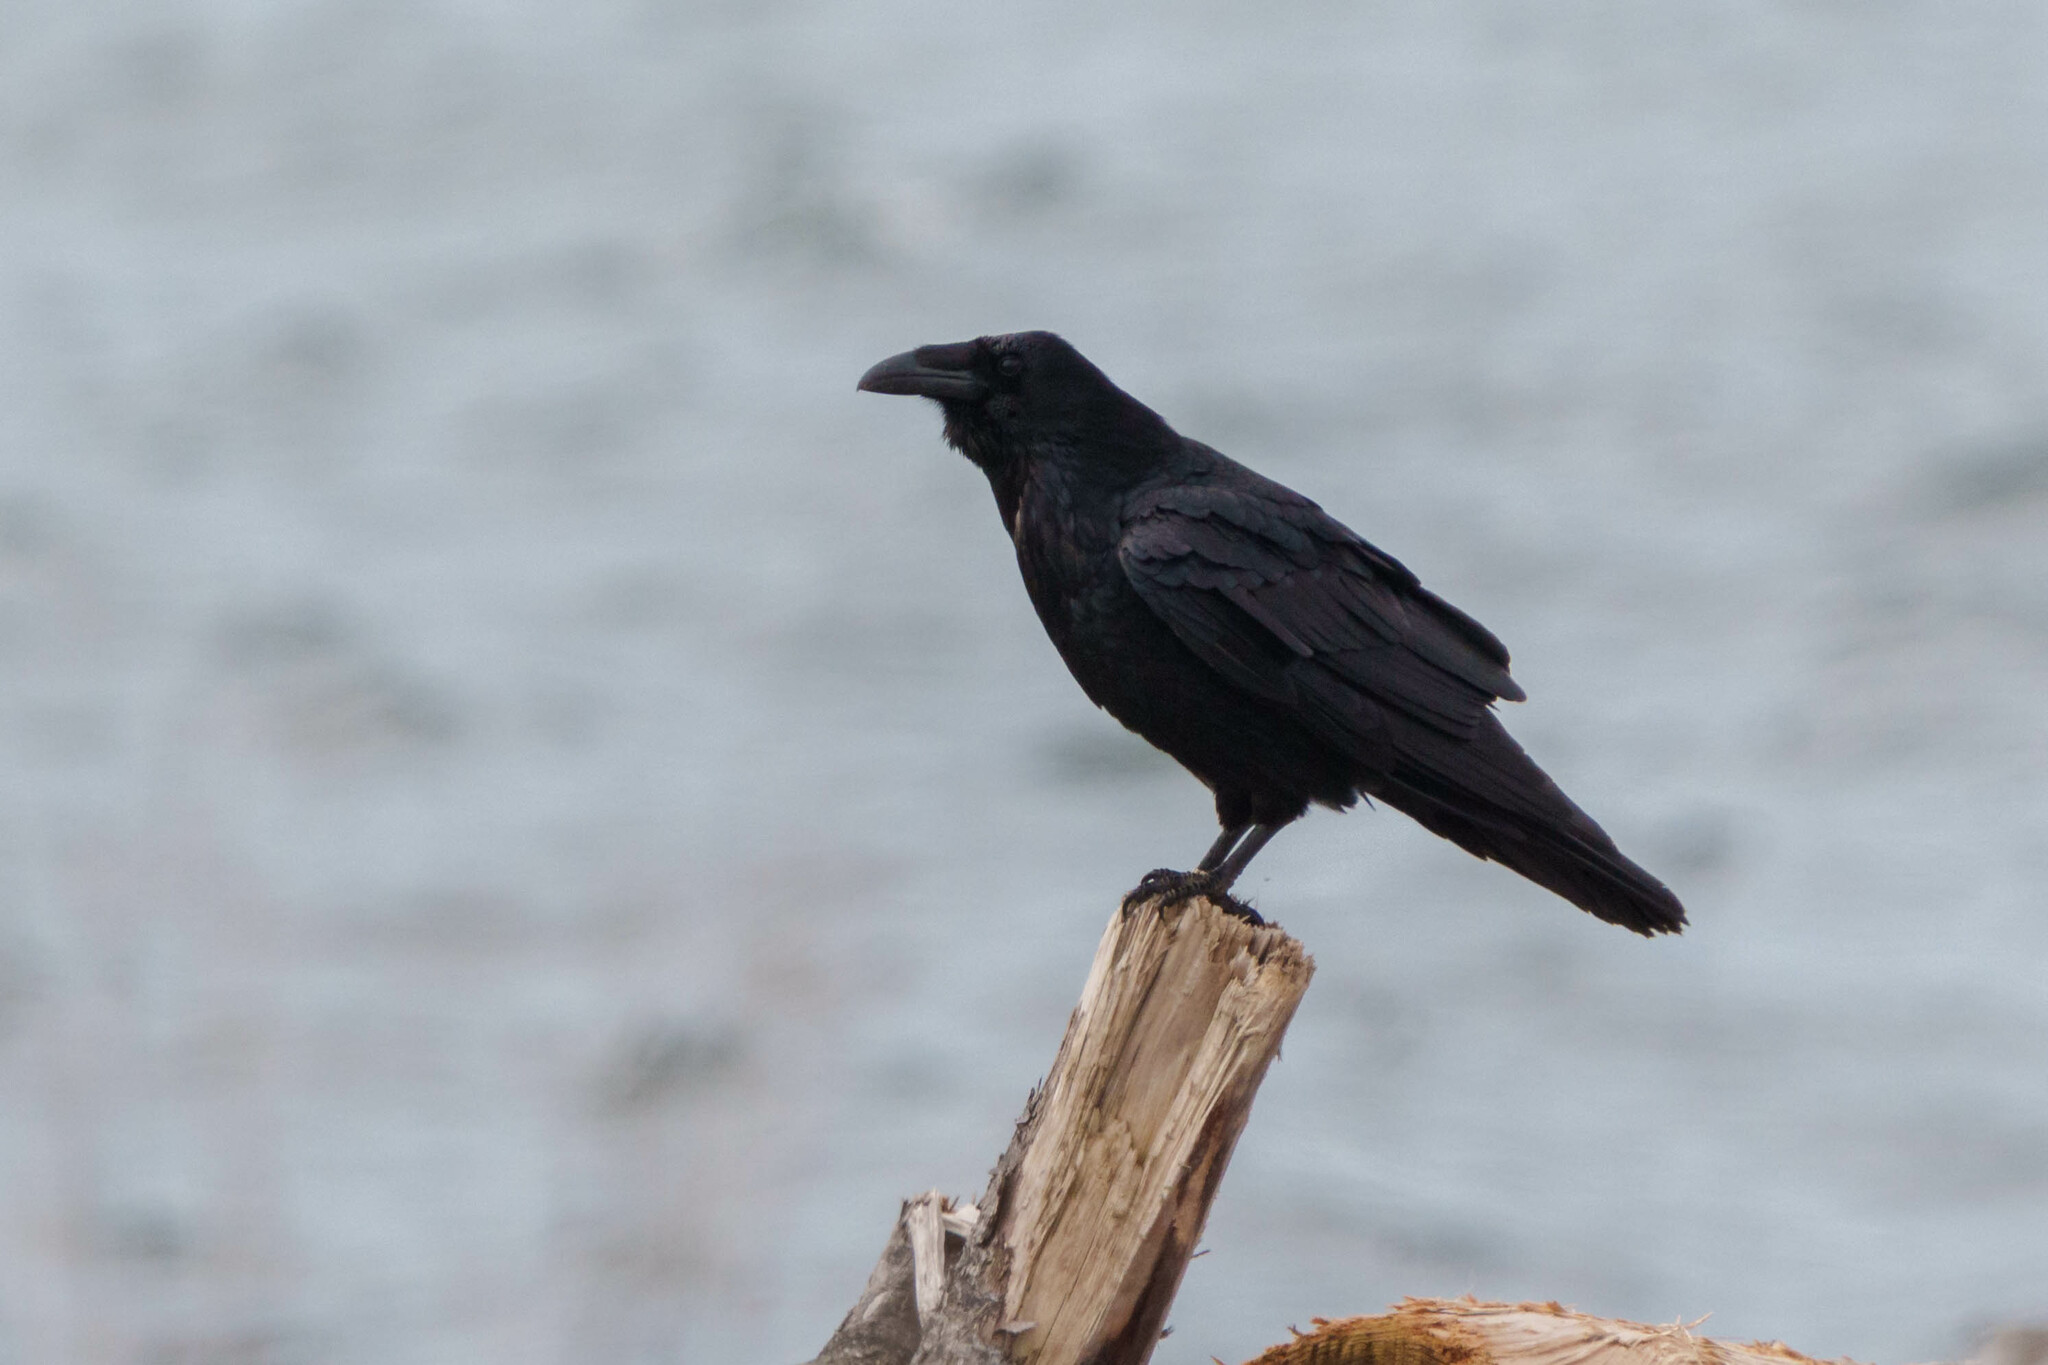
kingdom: Animalia
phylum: Chordata
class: Aves
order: Passeriformes
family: Corvidae
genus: Corvus
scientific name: Corvus corax
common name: Common raven
